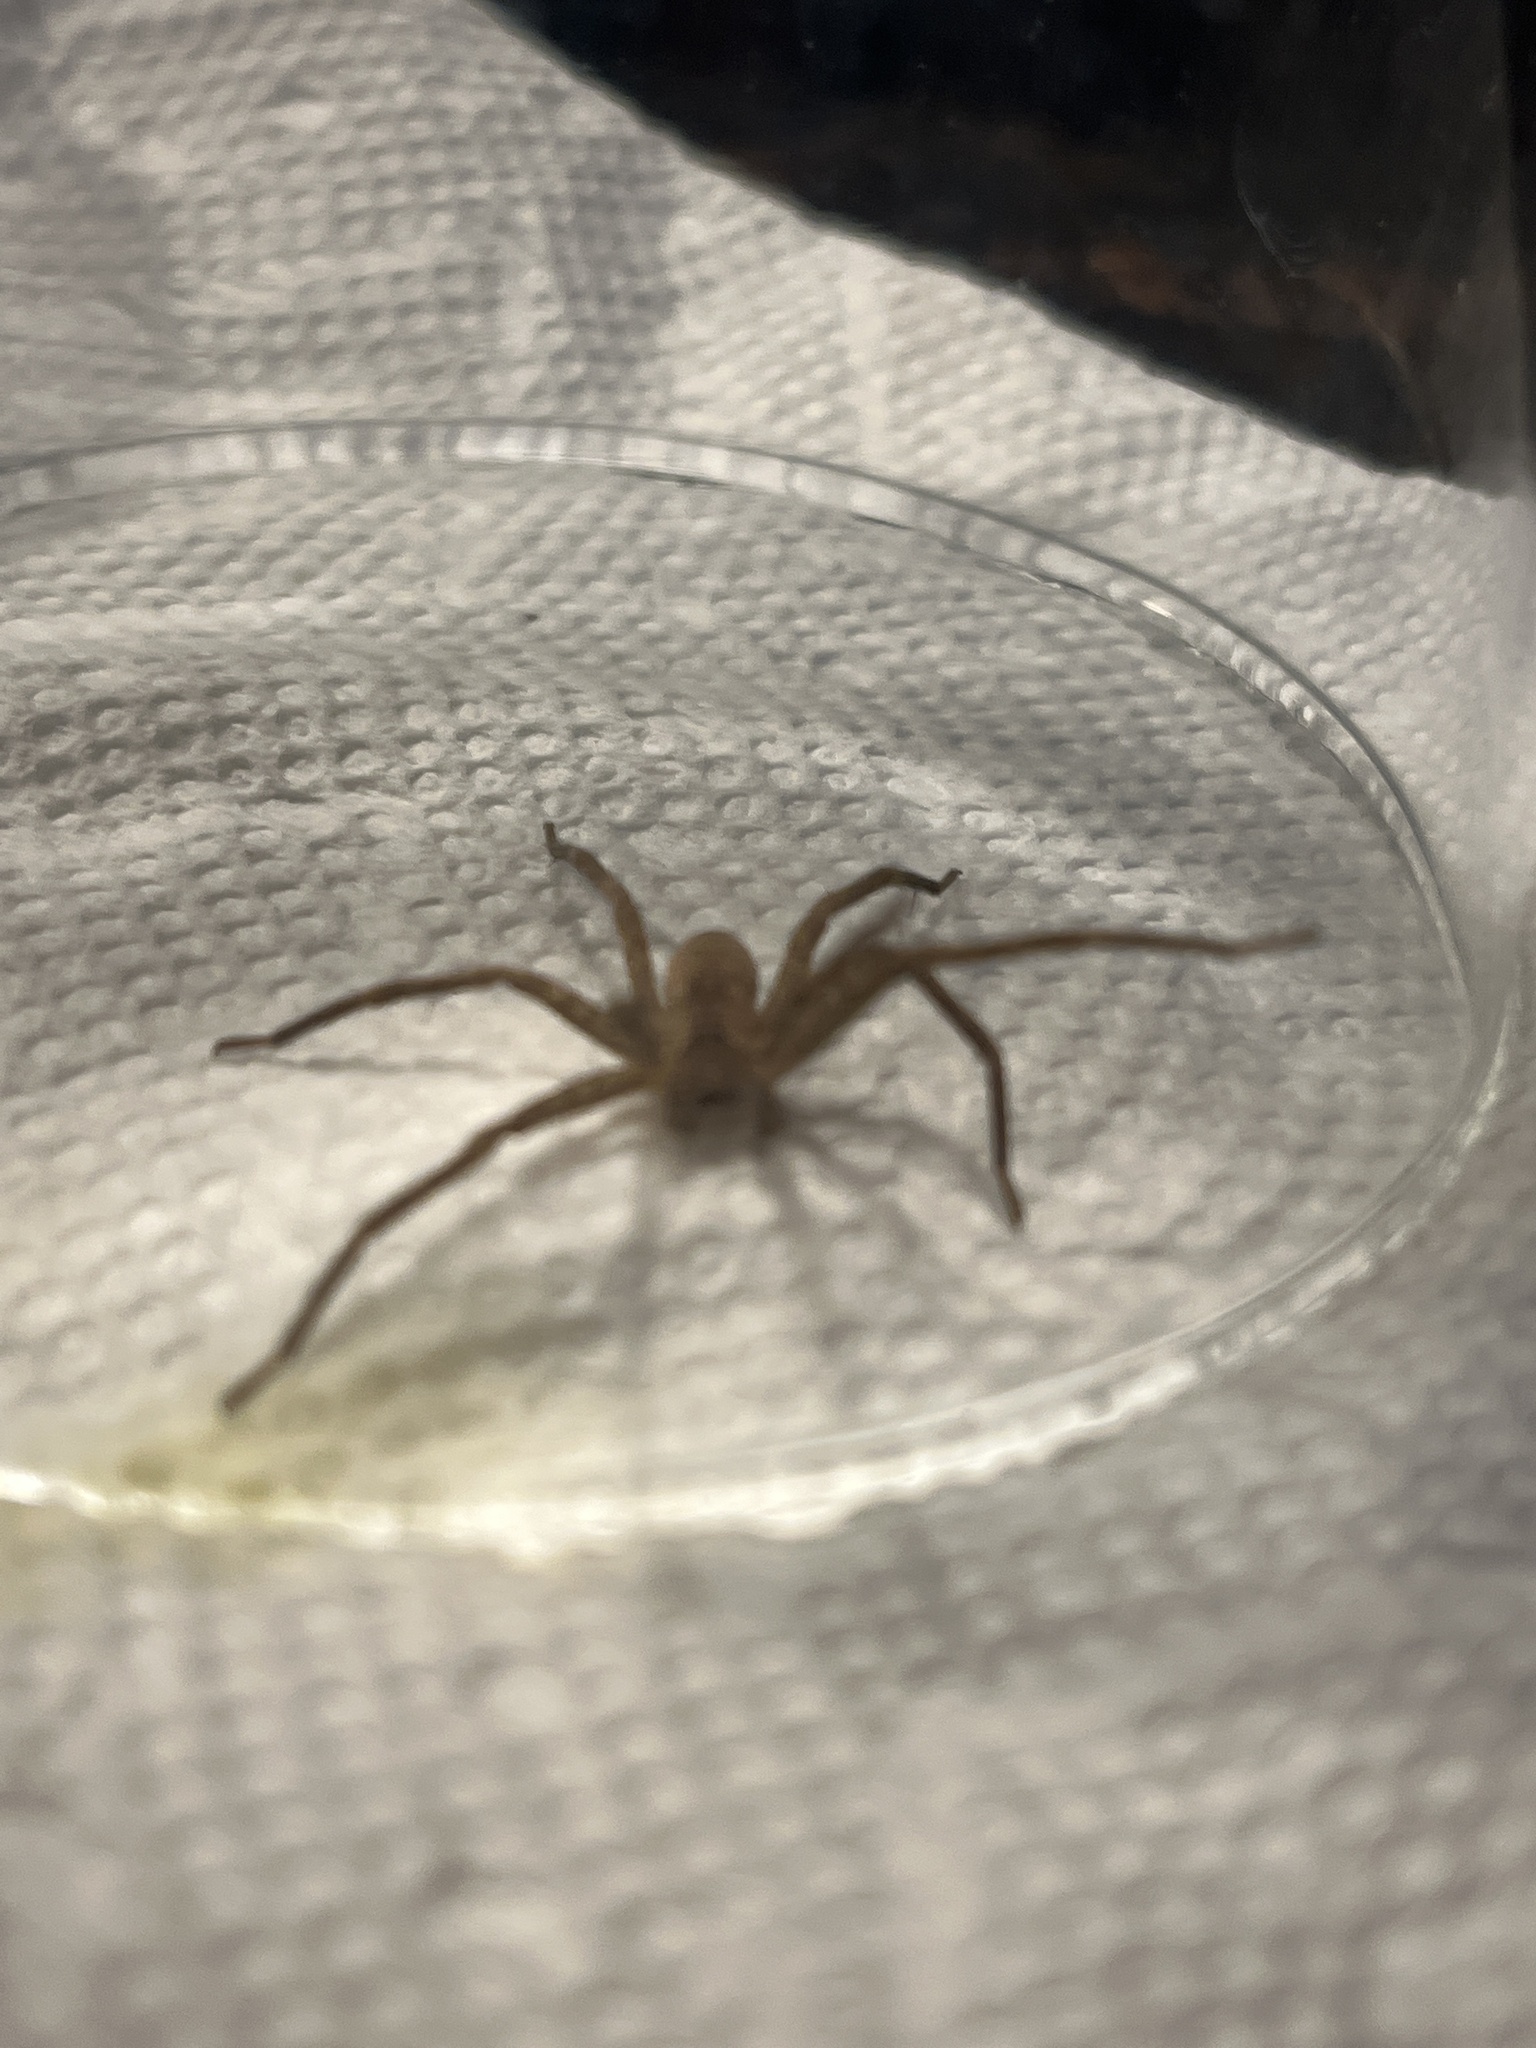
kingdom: Animalia
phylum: Arthropoda
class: Arachnida
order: Araneae
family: Pisauridae
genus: Pisaurina
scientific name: Pisaurina mira
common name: American nursery web spider
